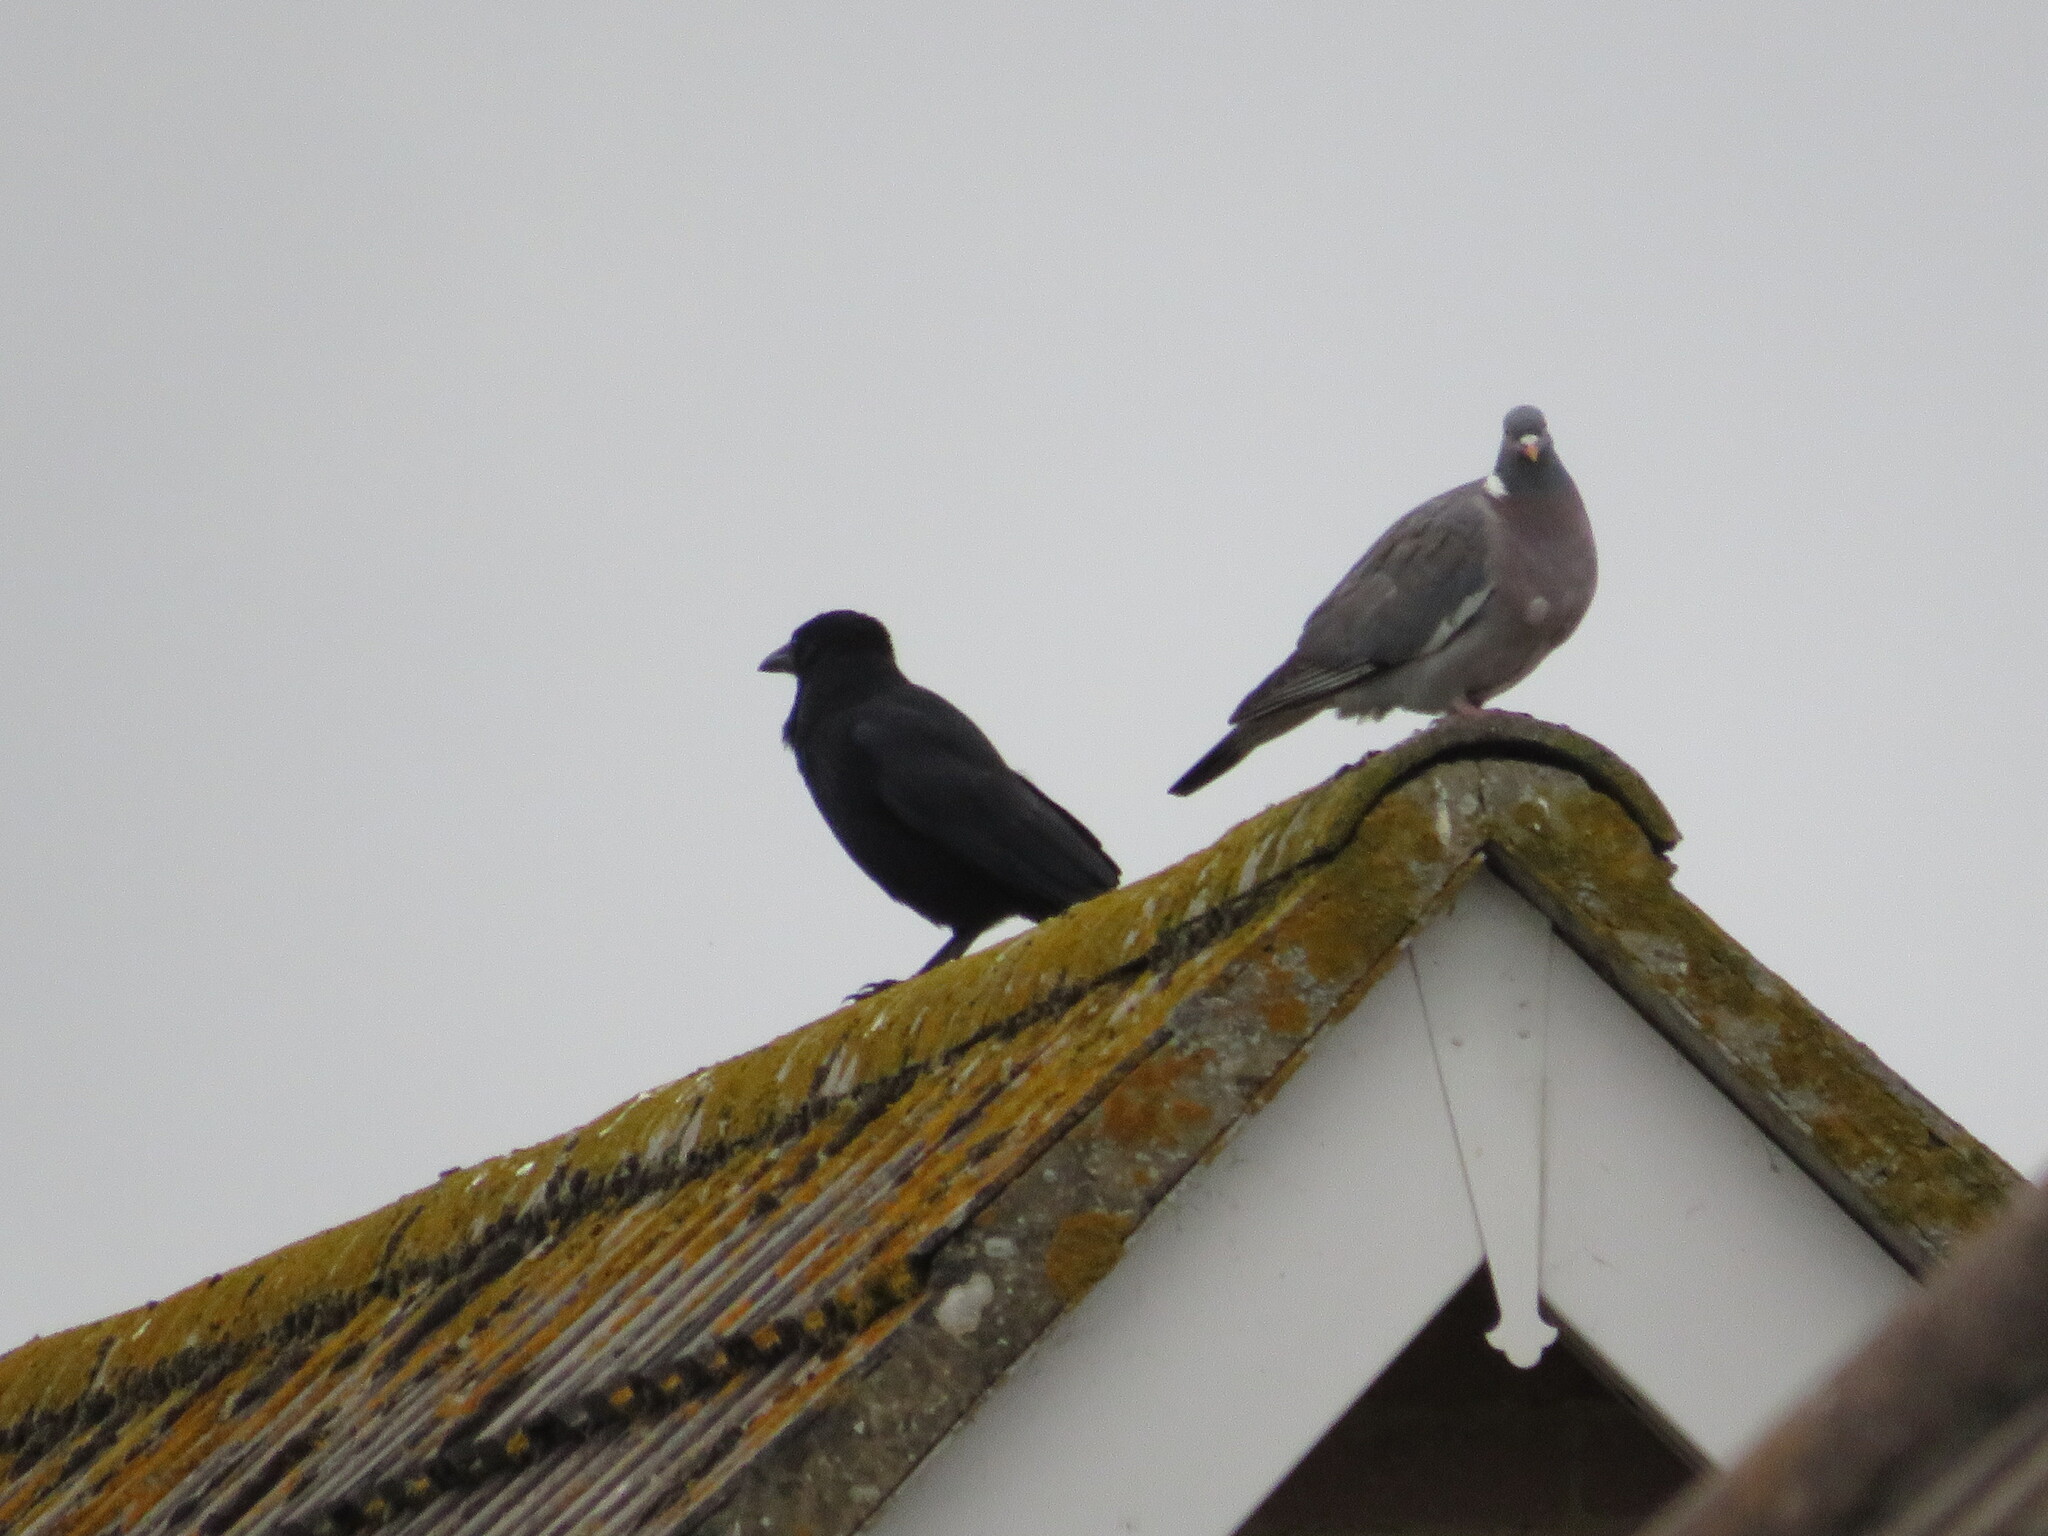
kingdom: Animalia
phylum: Chordata
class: Aves
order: Passeriformes
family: Corvidae
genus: Corvus
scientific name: Corvus corone
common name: Carrion crow
